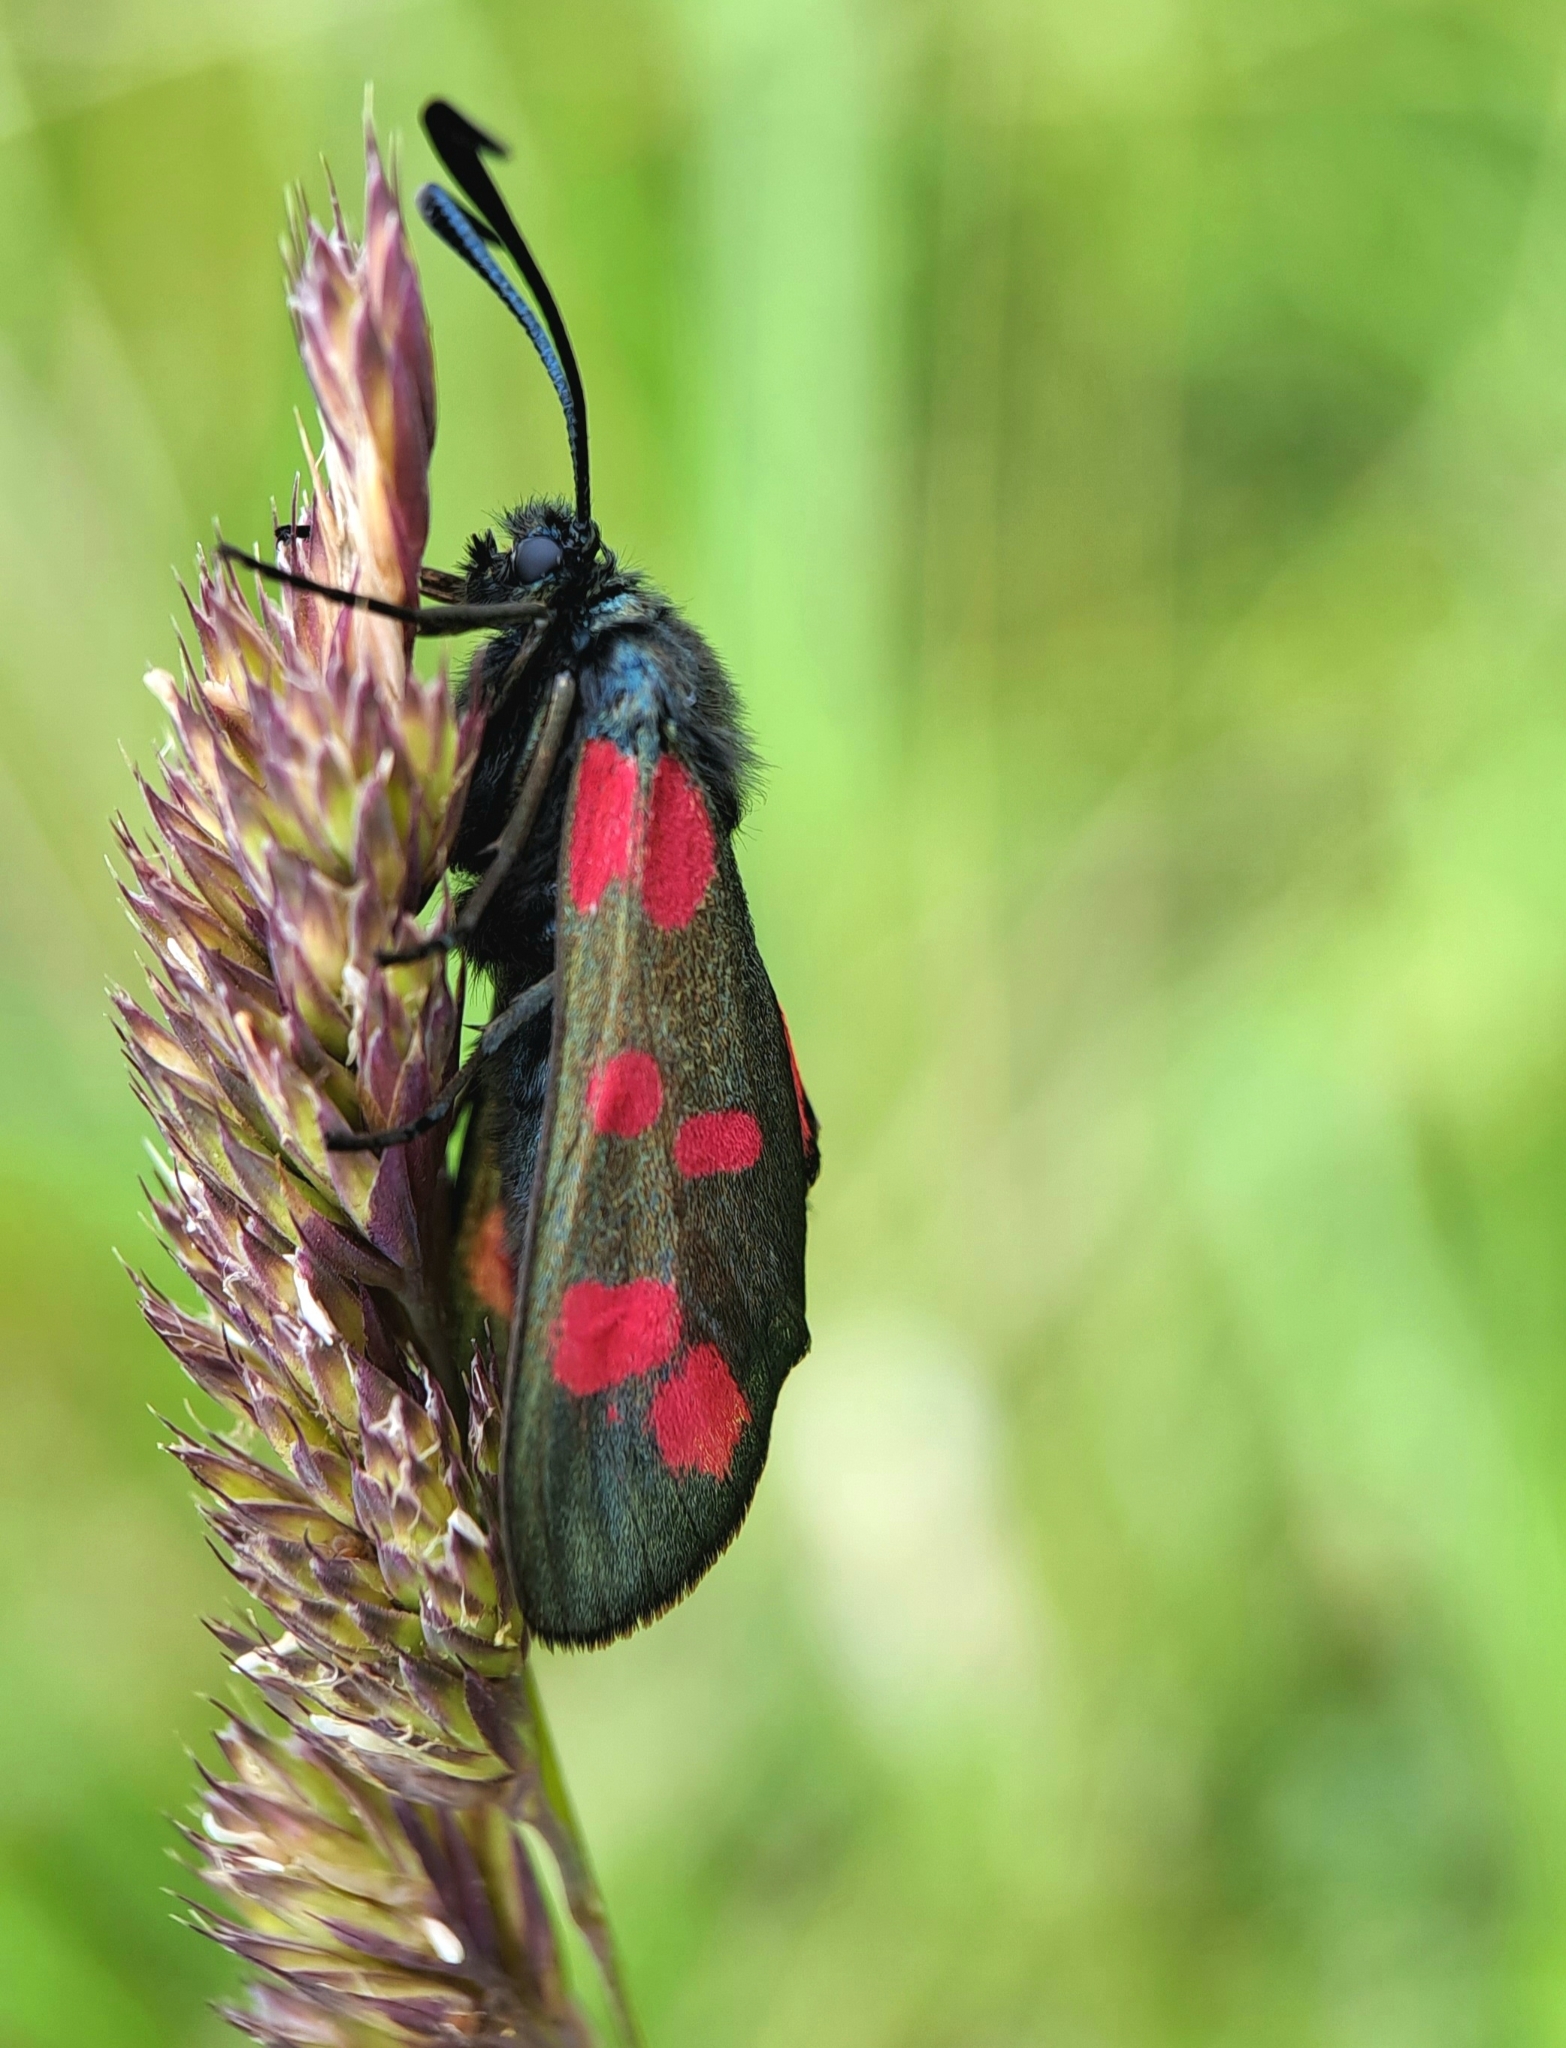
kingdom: Animalia
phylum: Arthropoda
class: Insecta
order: Lepidoptera
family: Zygaenidae
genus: Zygaena
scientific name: Zygaena filipendulae
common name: Six-spot burnet
